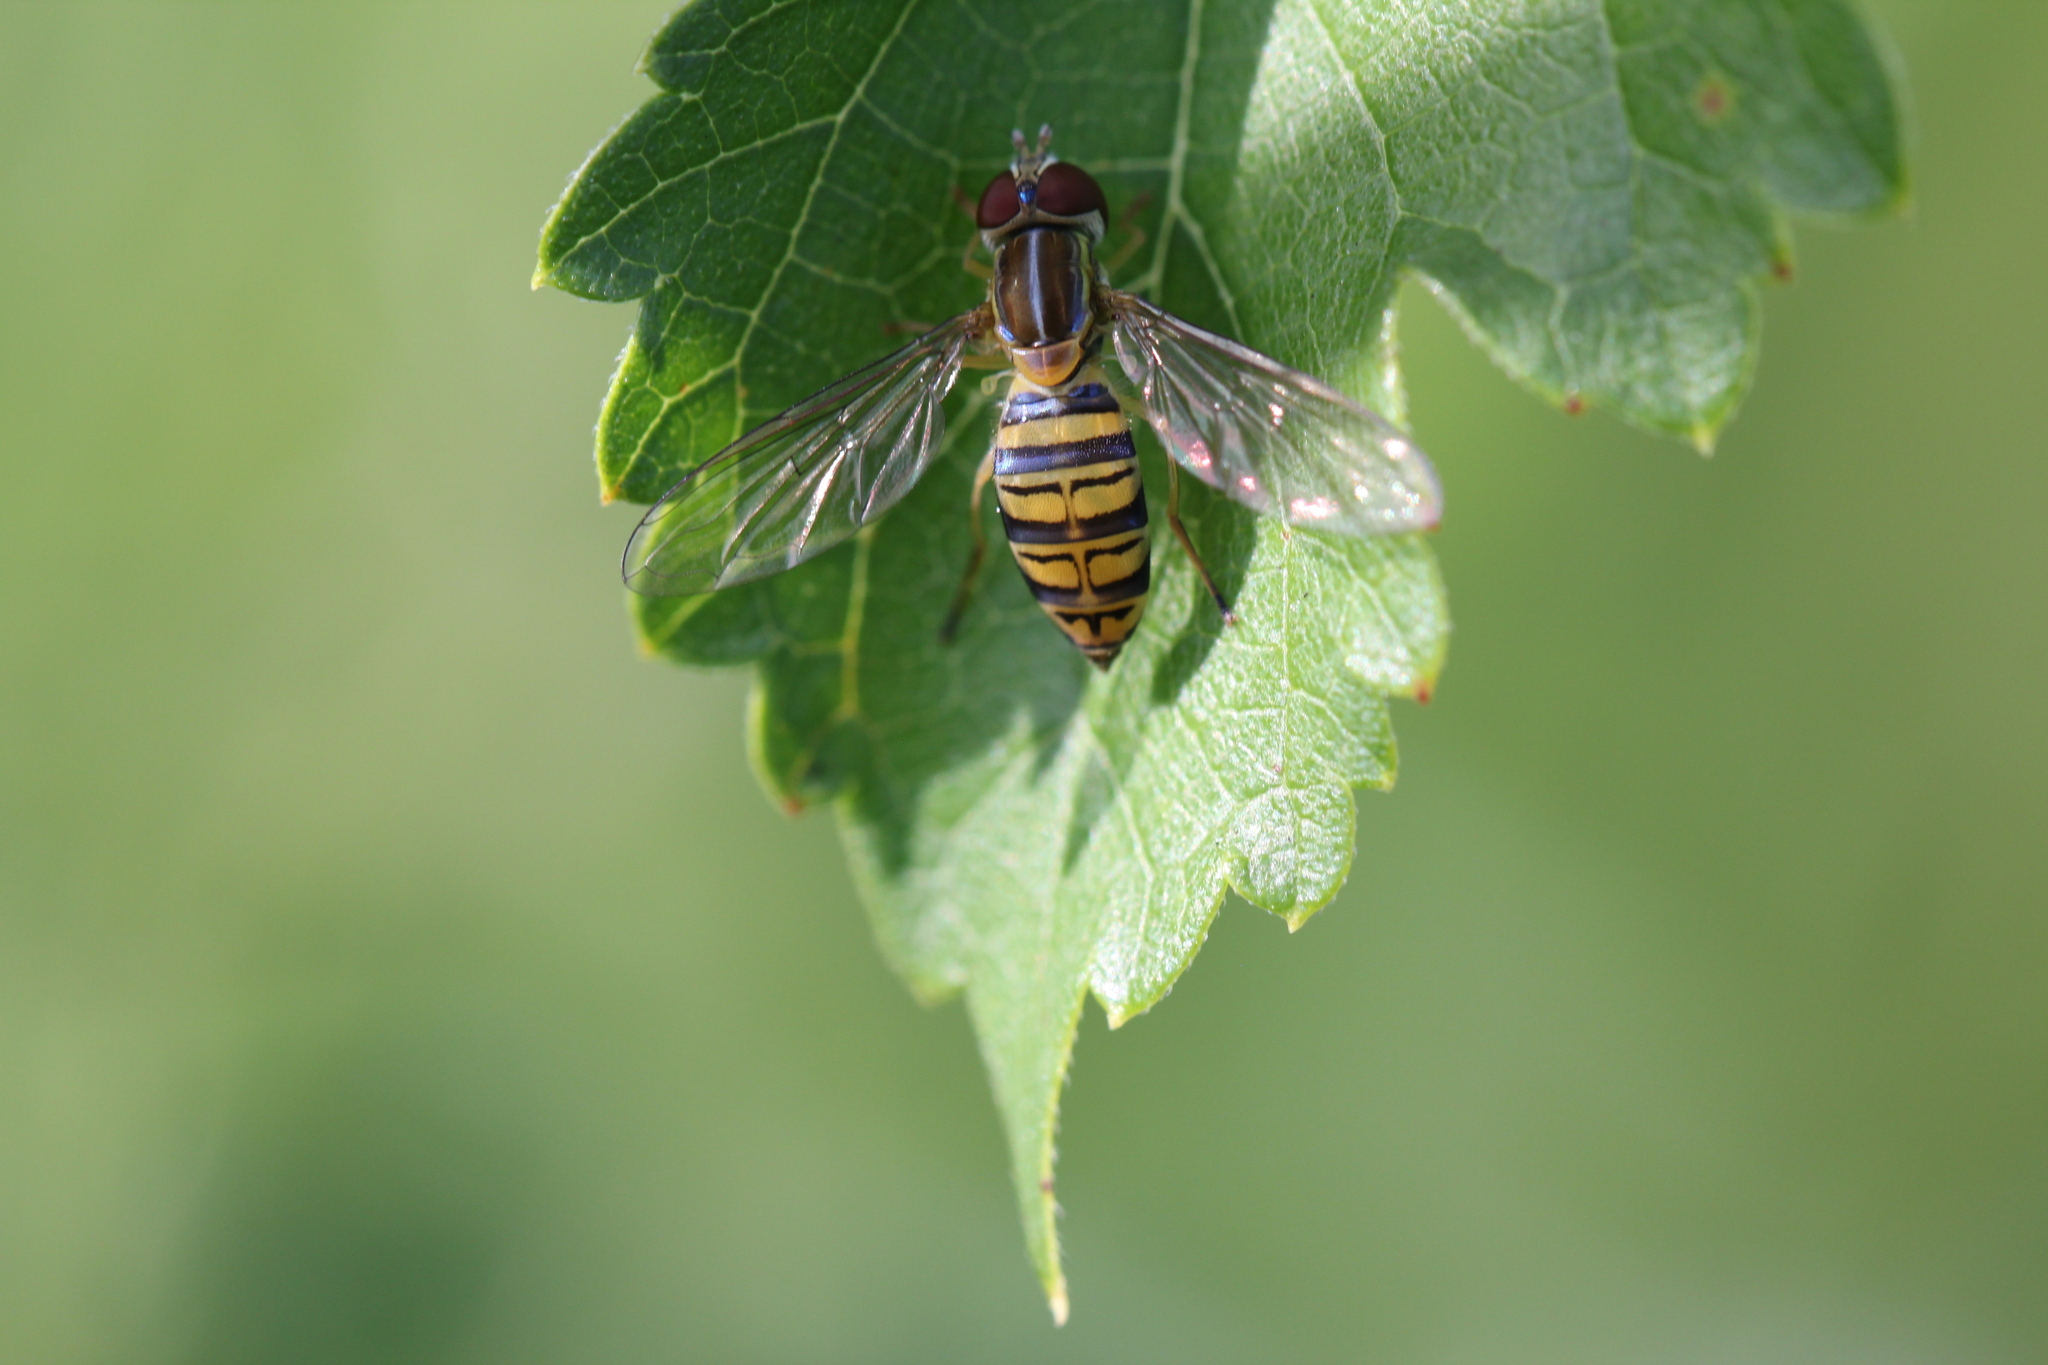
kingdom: Animalia
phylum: Arthropoda
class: Insecta
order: Diptera
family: Syrphidae
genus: Toxomerus
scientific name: Toxomerus politus
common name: Maize calligrapher
